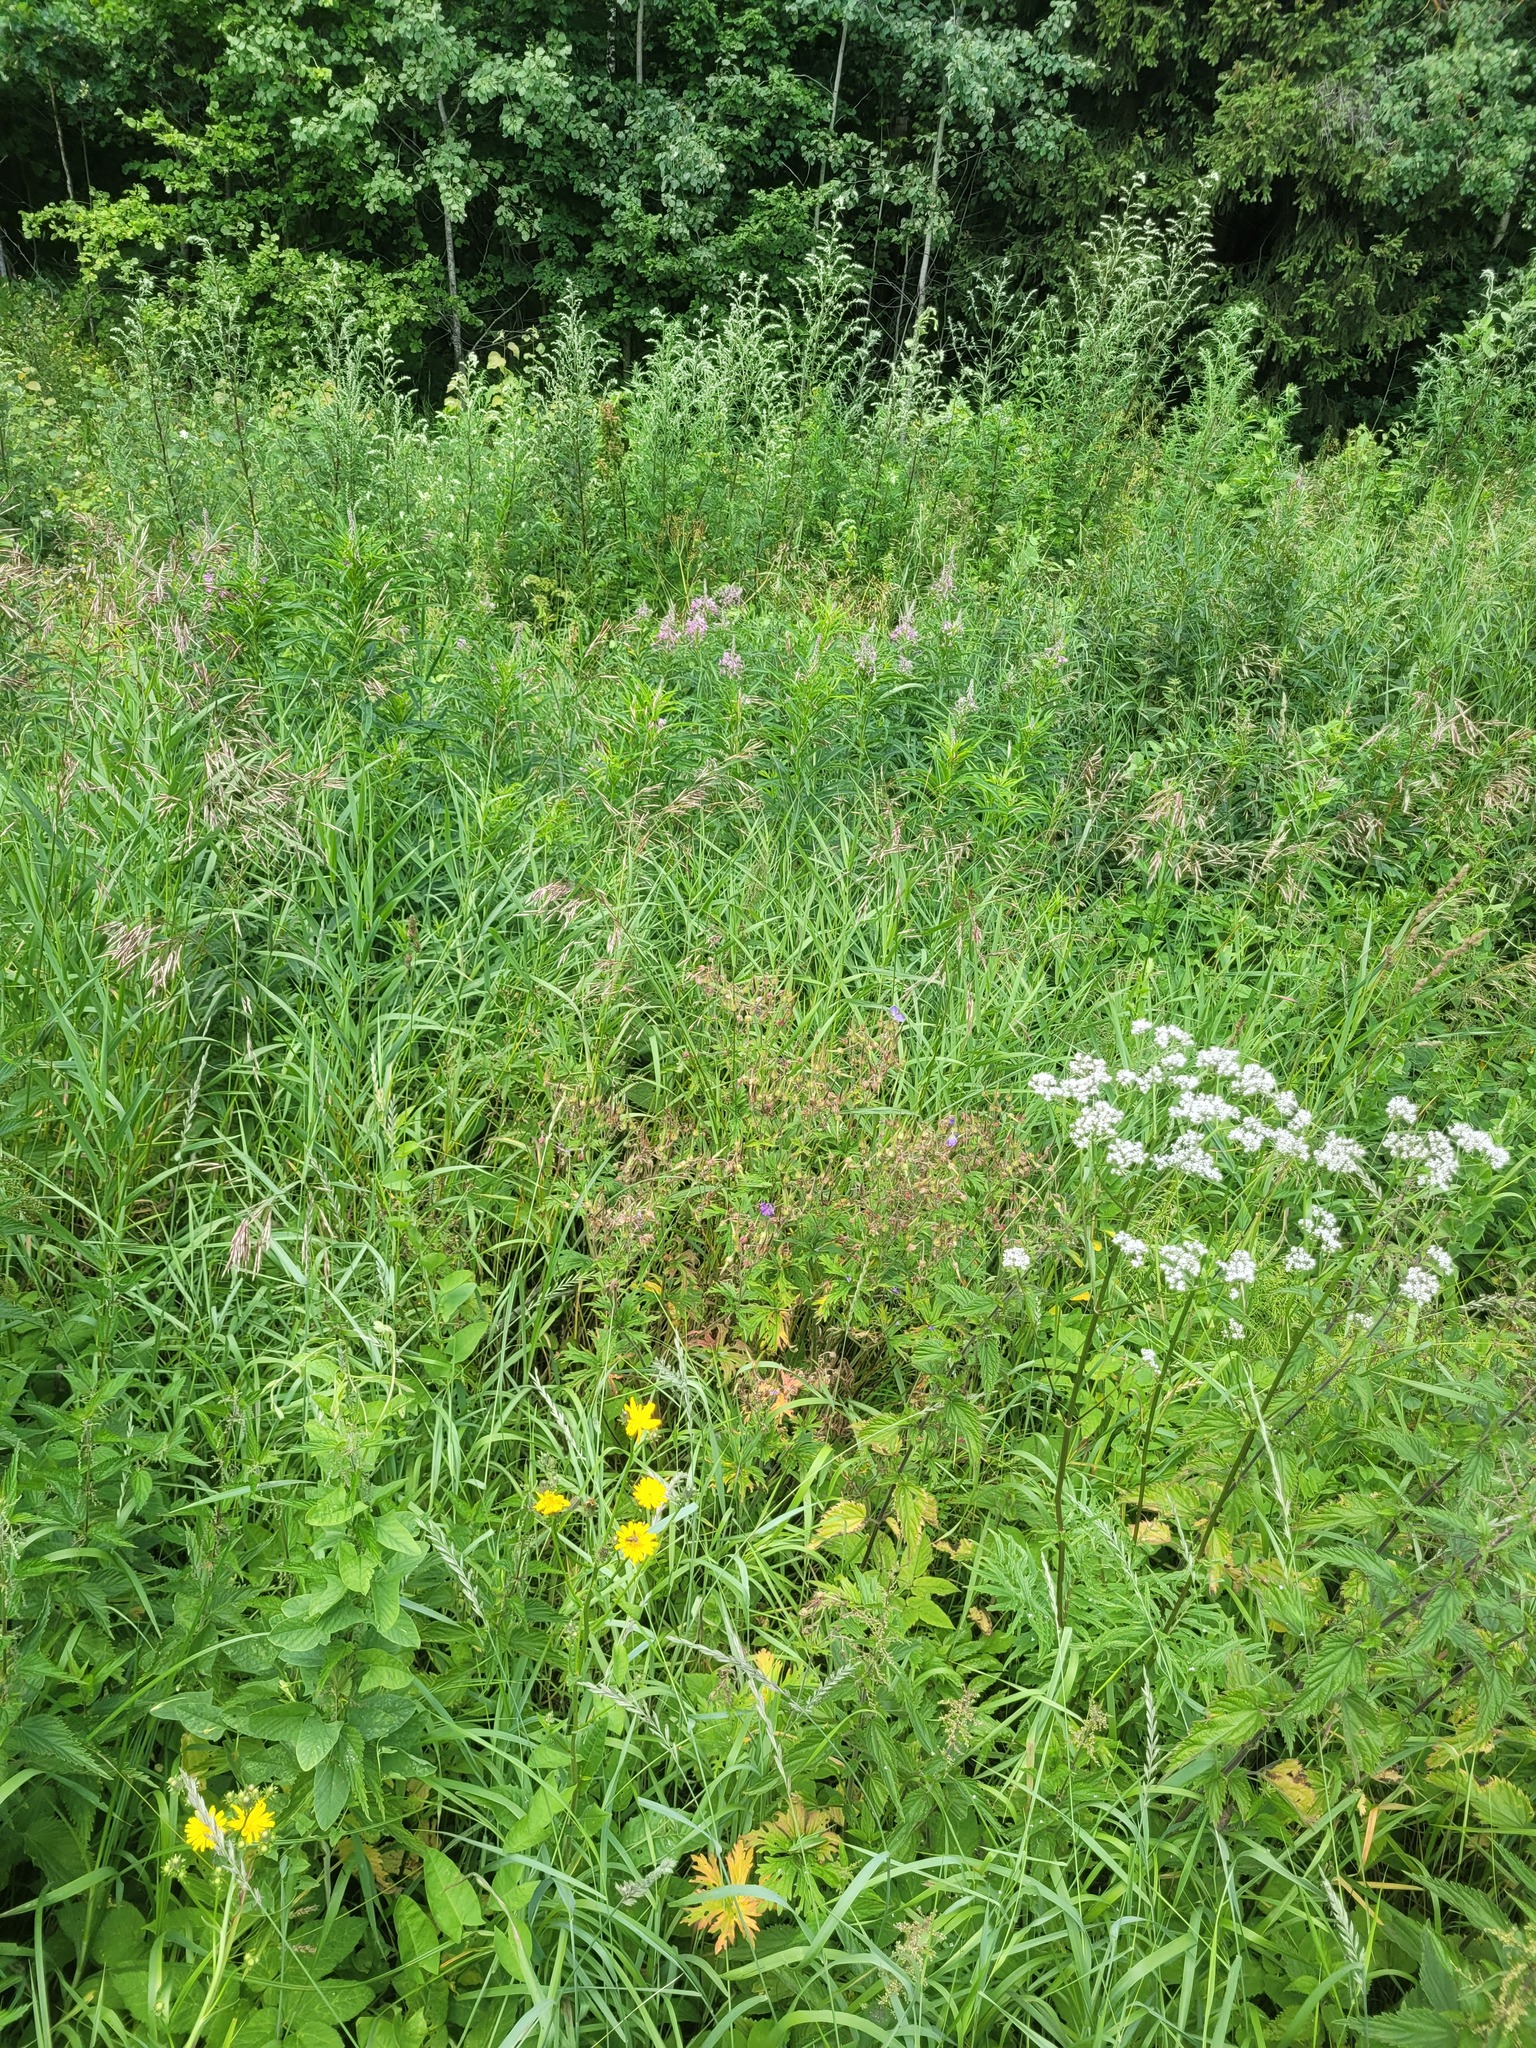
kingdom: Plantae
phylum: Tracheophyta
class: Magnoliopsida
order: Geraniales
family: Geraniaceae
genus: Geranium
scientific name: Geranium pratense
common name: Meadow crane's-bill
